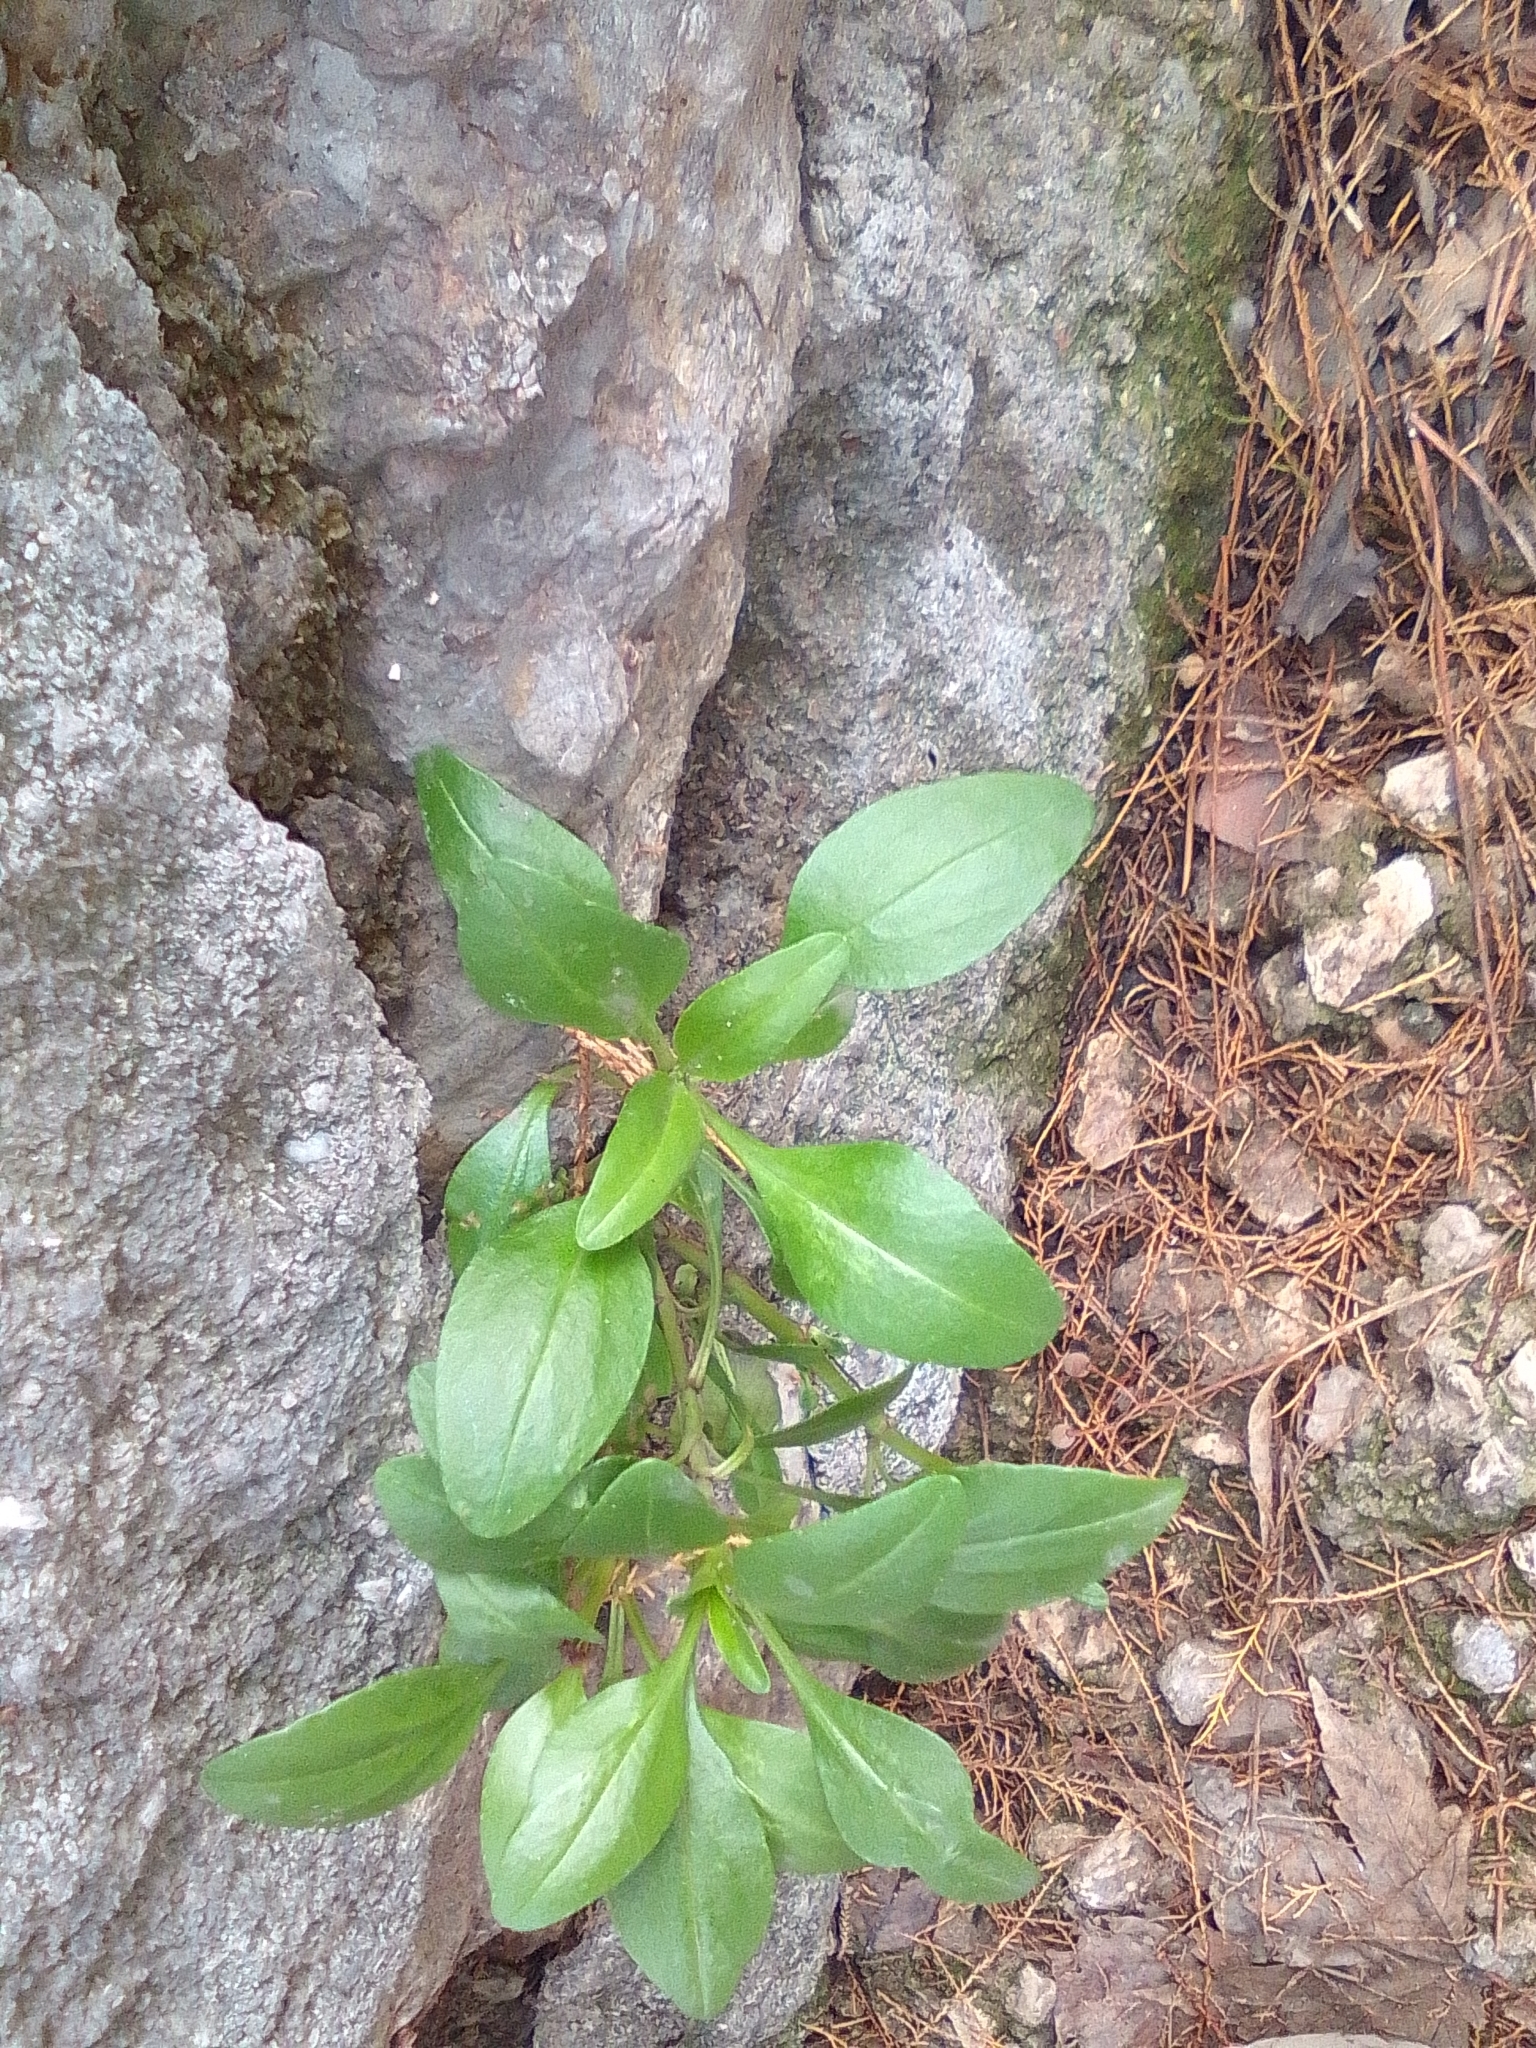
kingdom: Plantae
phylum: Tracheophyta
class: Magnoliopsida
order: Dipsacales
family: Caprifoliaceae
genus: Centranthus
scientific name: Centranthus ruber
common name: Red valerian
